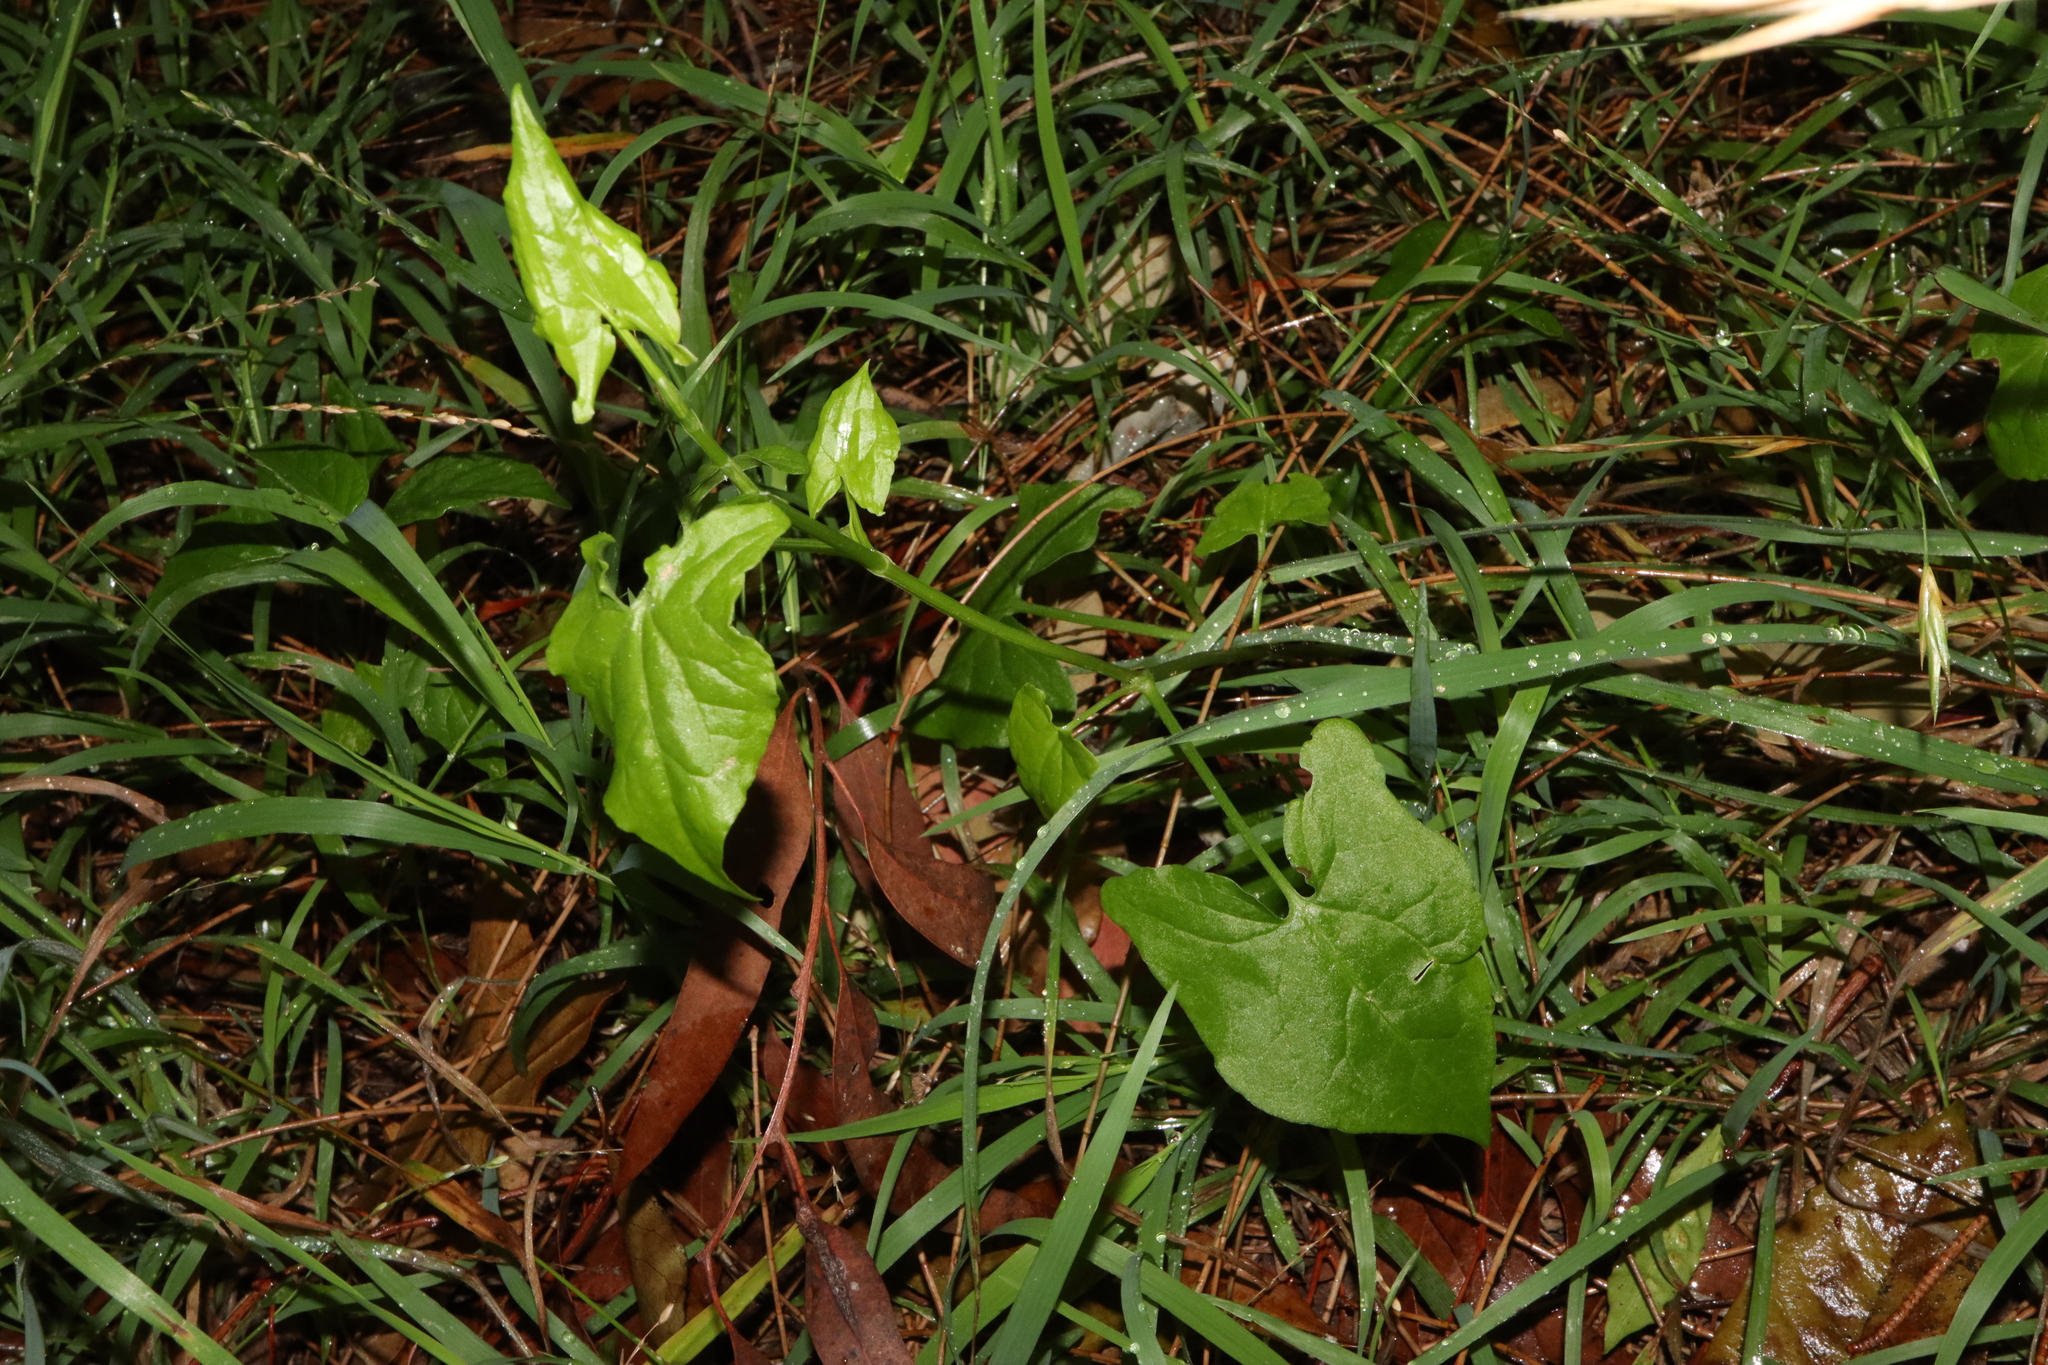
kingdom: Plantae
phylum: Tracheophyta
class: Magnoliopsida
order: Caryophyllales
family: Polygonaceae
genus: Rumex
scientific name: Rumex sagittatus
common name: Climbing dock
